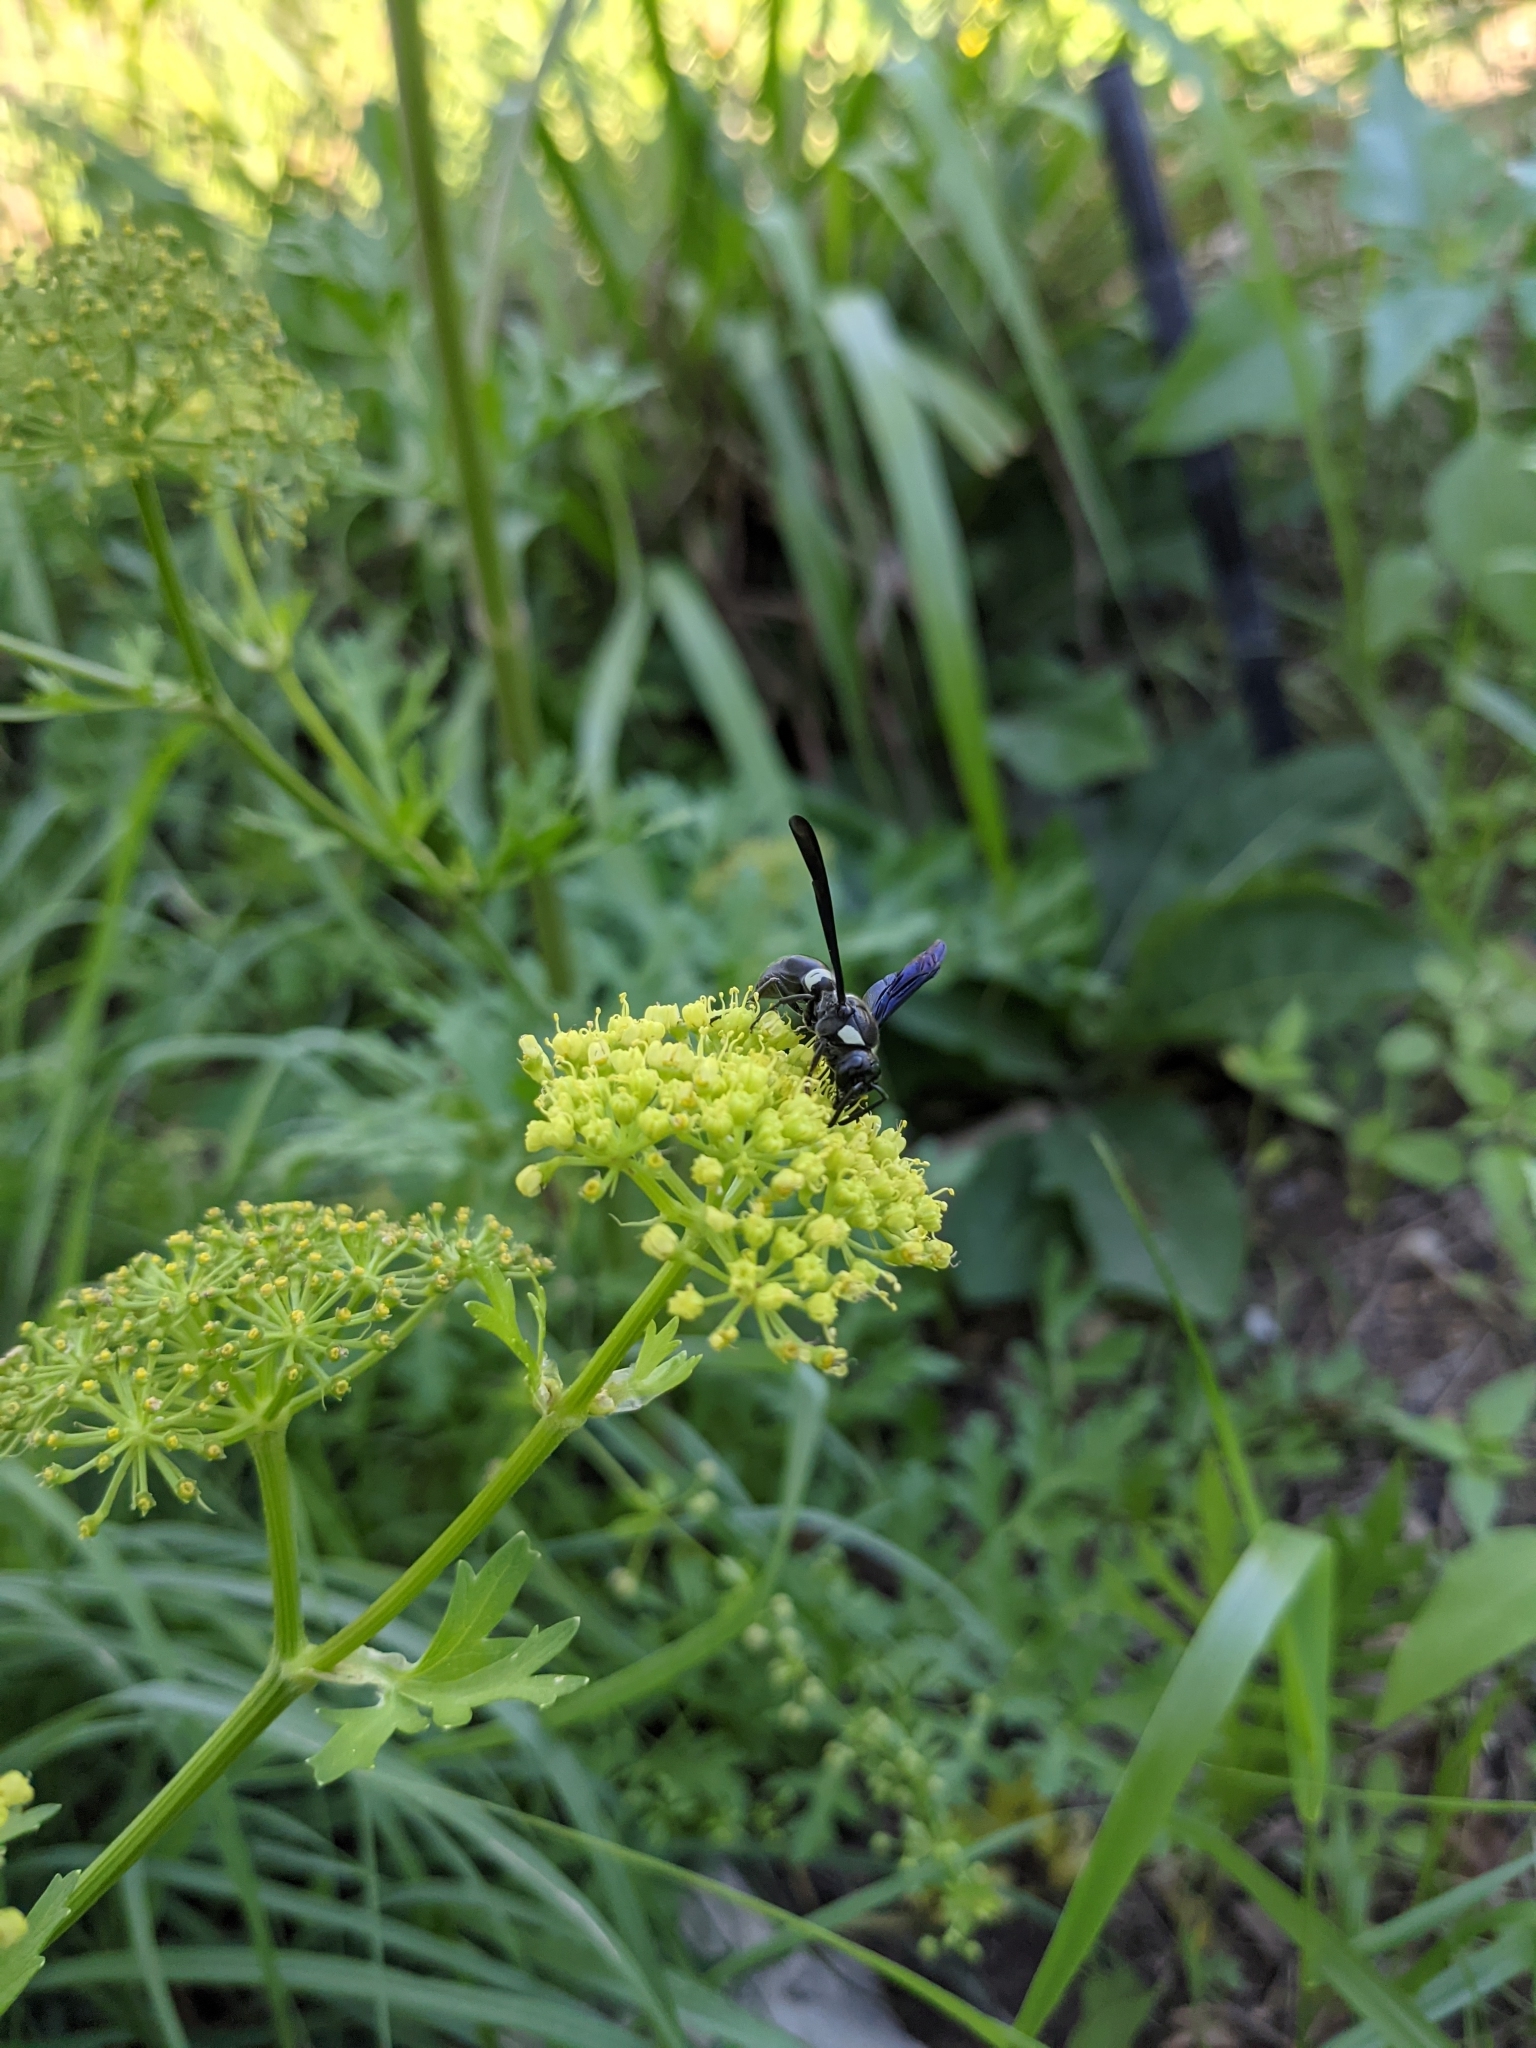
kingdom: Animalia
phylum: Arthropoda
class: Insecta
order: Hymenoptera
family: Eumenidae
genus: Monobia
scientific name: Monobia quadridens
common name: Four-toothed mason wasp
